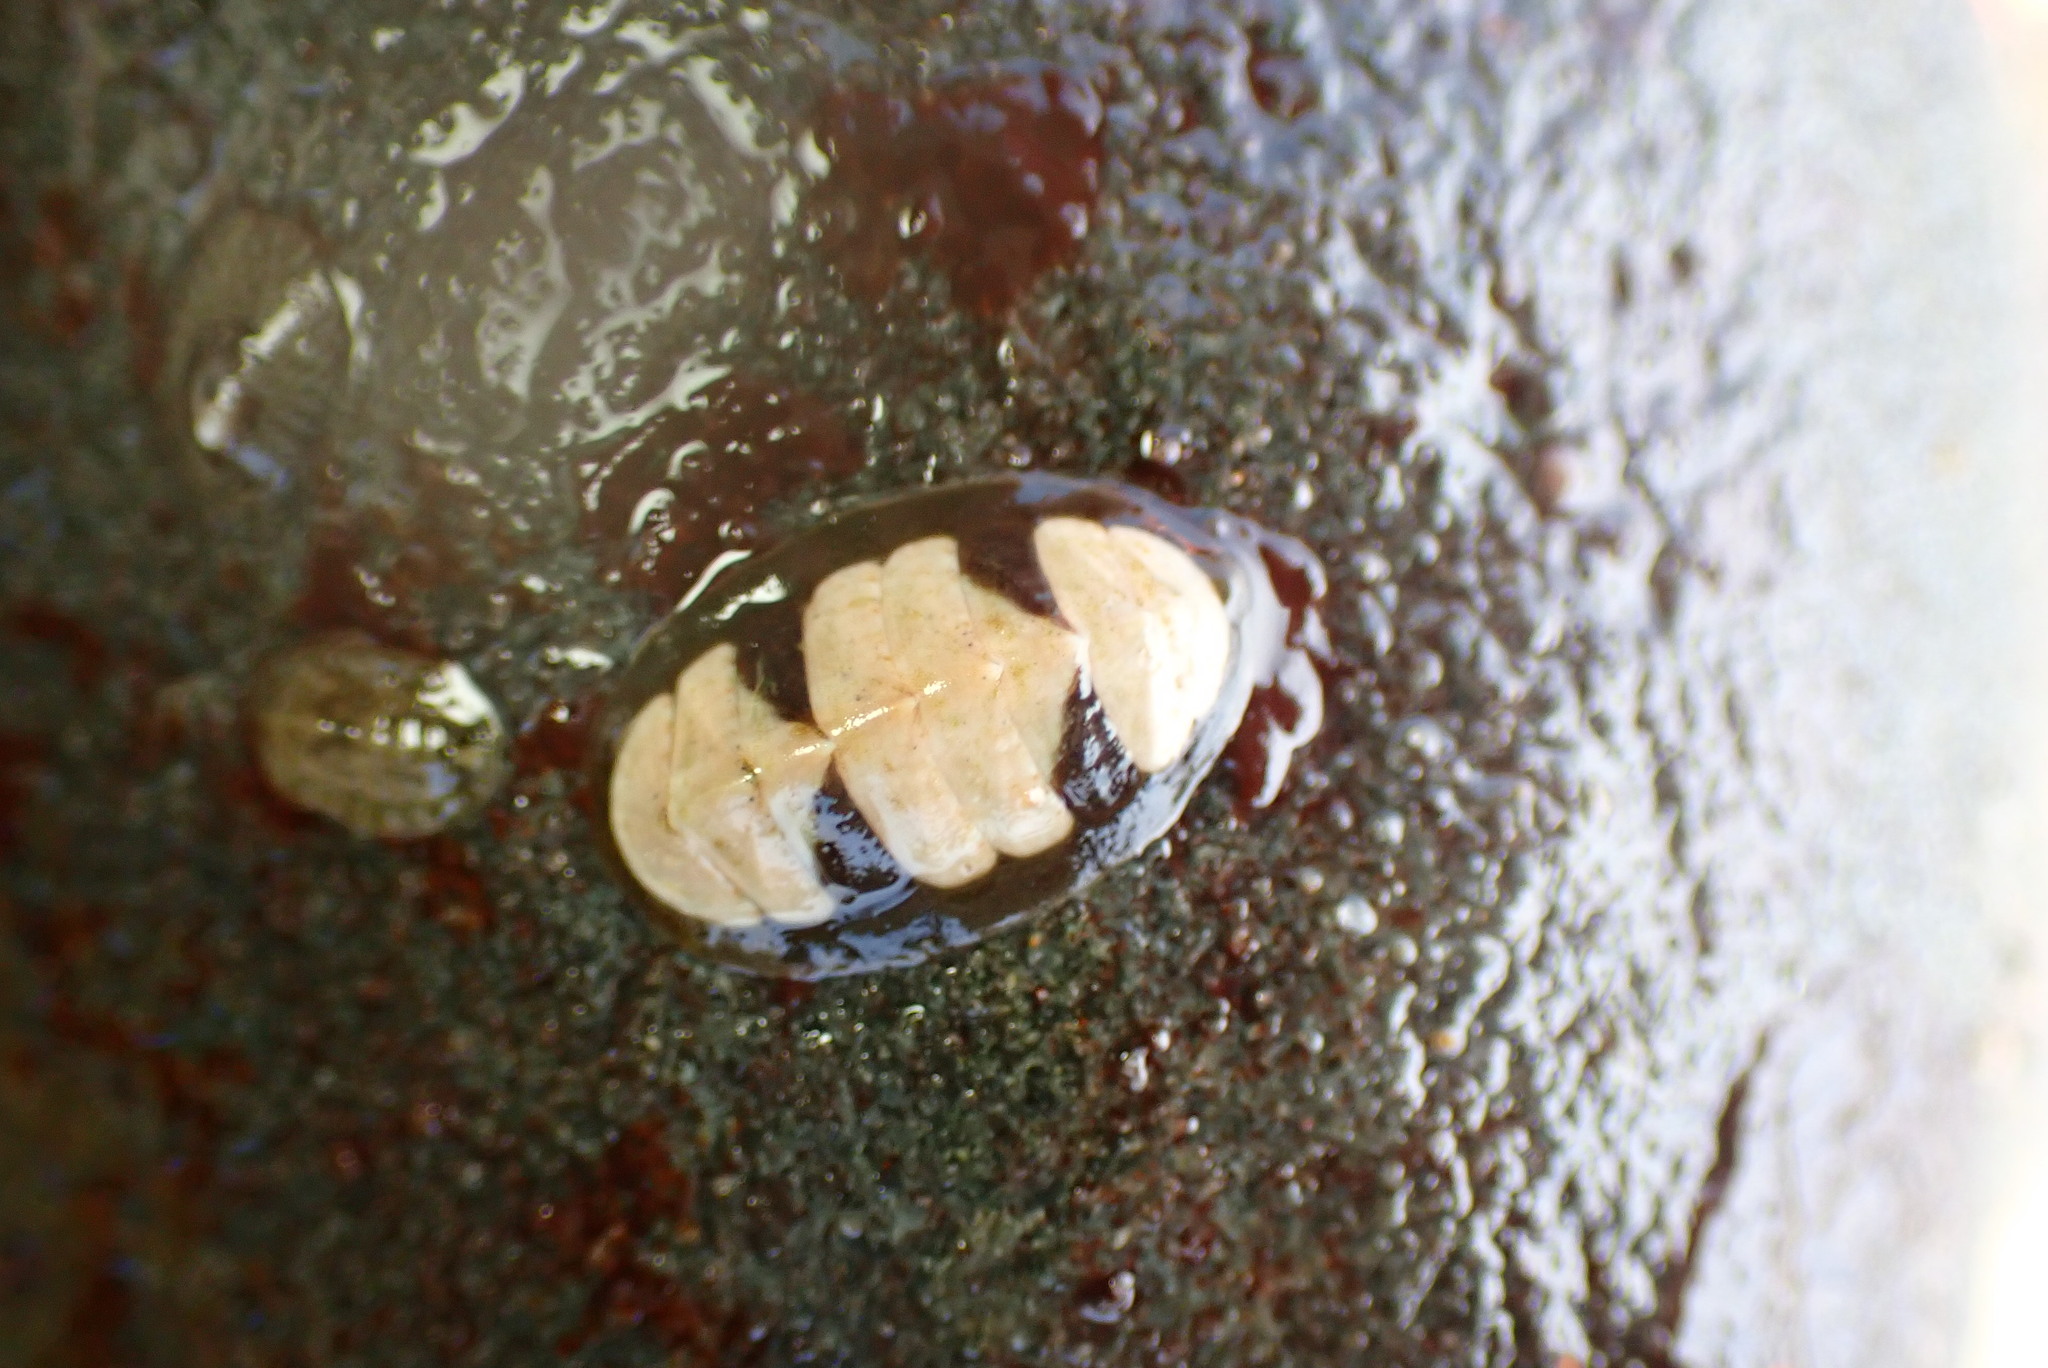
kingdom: Animalia
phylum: Mollusca
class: Polyplacophora
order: Chitonida
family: Tonicellidae
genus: Cyanoplax
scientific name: Cyanoplax keepiana
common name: Keep's chiton
